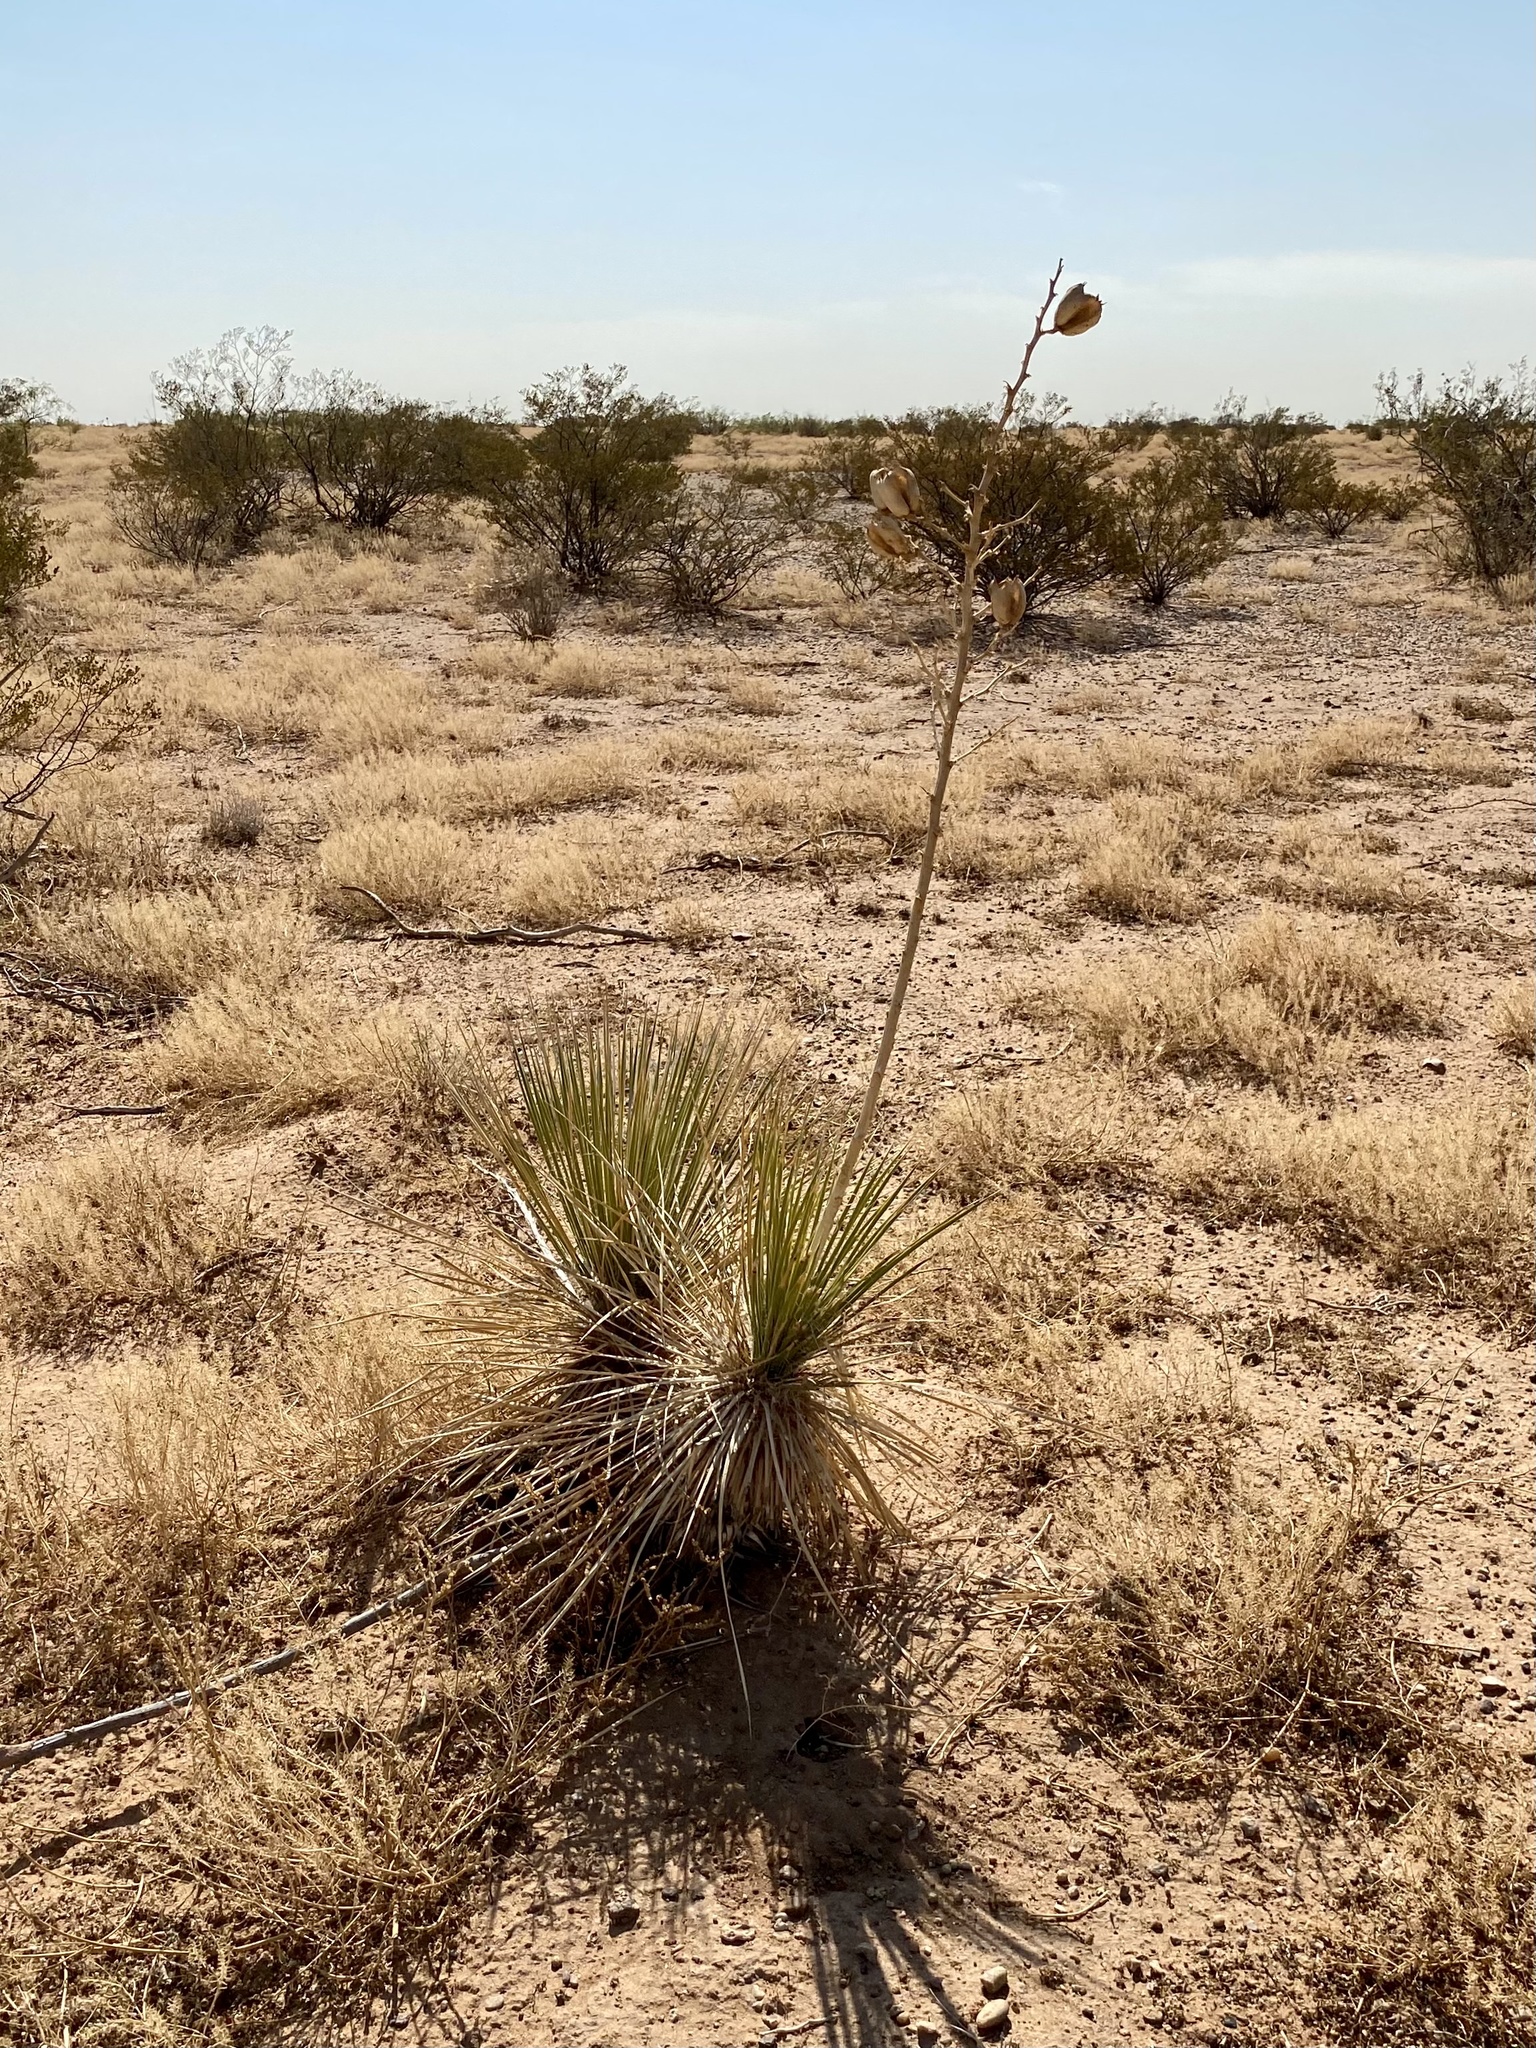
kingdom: Plantae
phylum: Tracheophyta
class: Liliopsida
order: Asparagales
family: Asparagaceae
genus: Yucca
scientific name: Yucca elata
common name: Palmella
